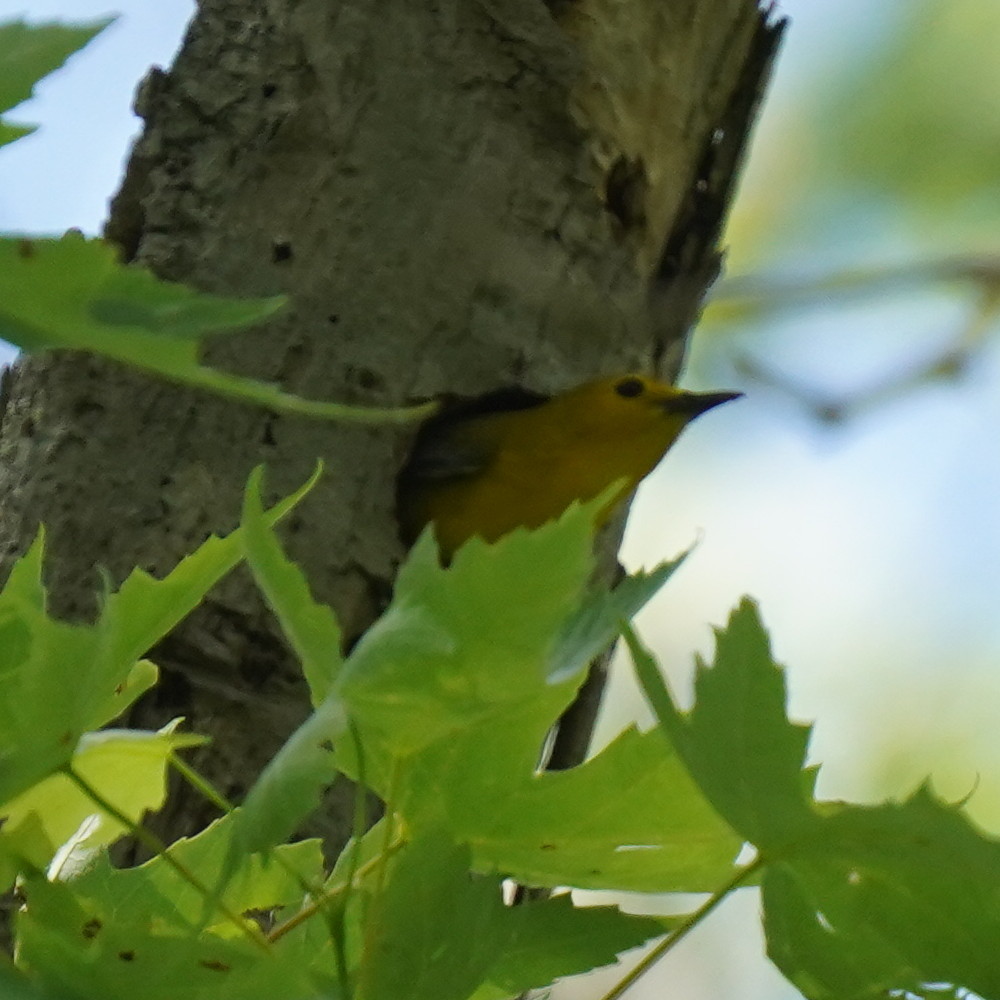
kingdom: Animalia
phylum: Chordata
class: Aves
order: Passeriformes
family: Parulidae
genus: Protonotaria
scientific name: Protonotaria citrea
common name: Prothonotary warbler
